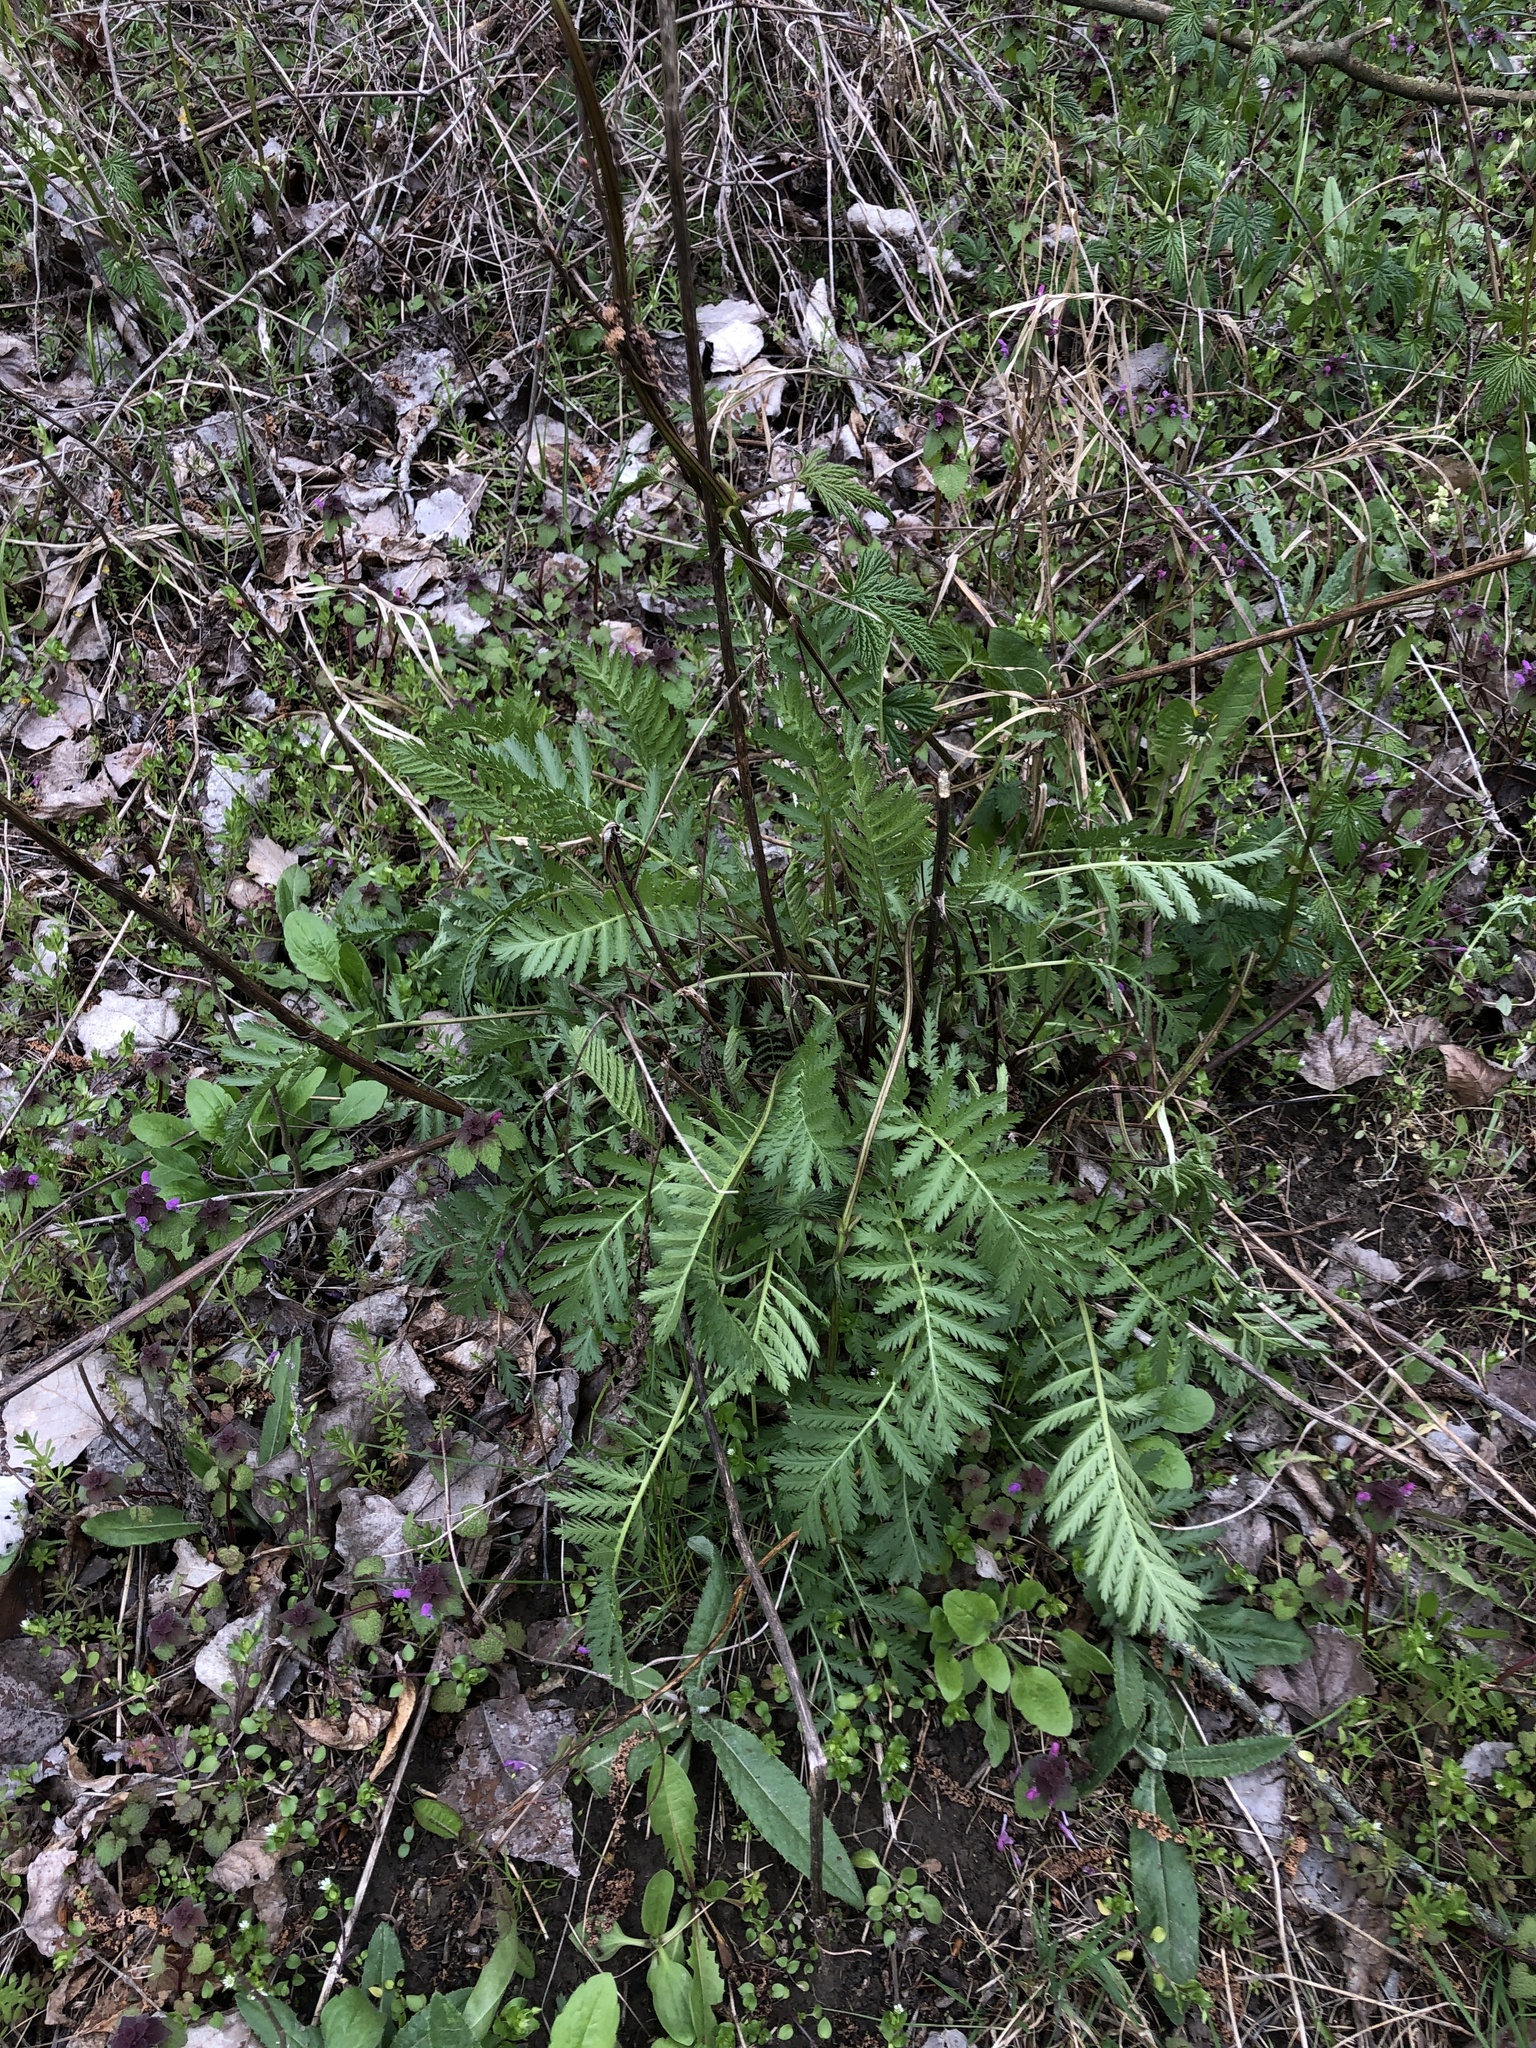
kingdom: Plantae
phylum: Tracheophyta
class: Magnoliopsida
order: Asterales
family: Asteraceae
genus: Tanacetum
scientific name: Tanacetum vulgare
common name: Common tansy
